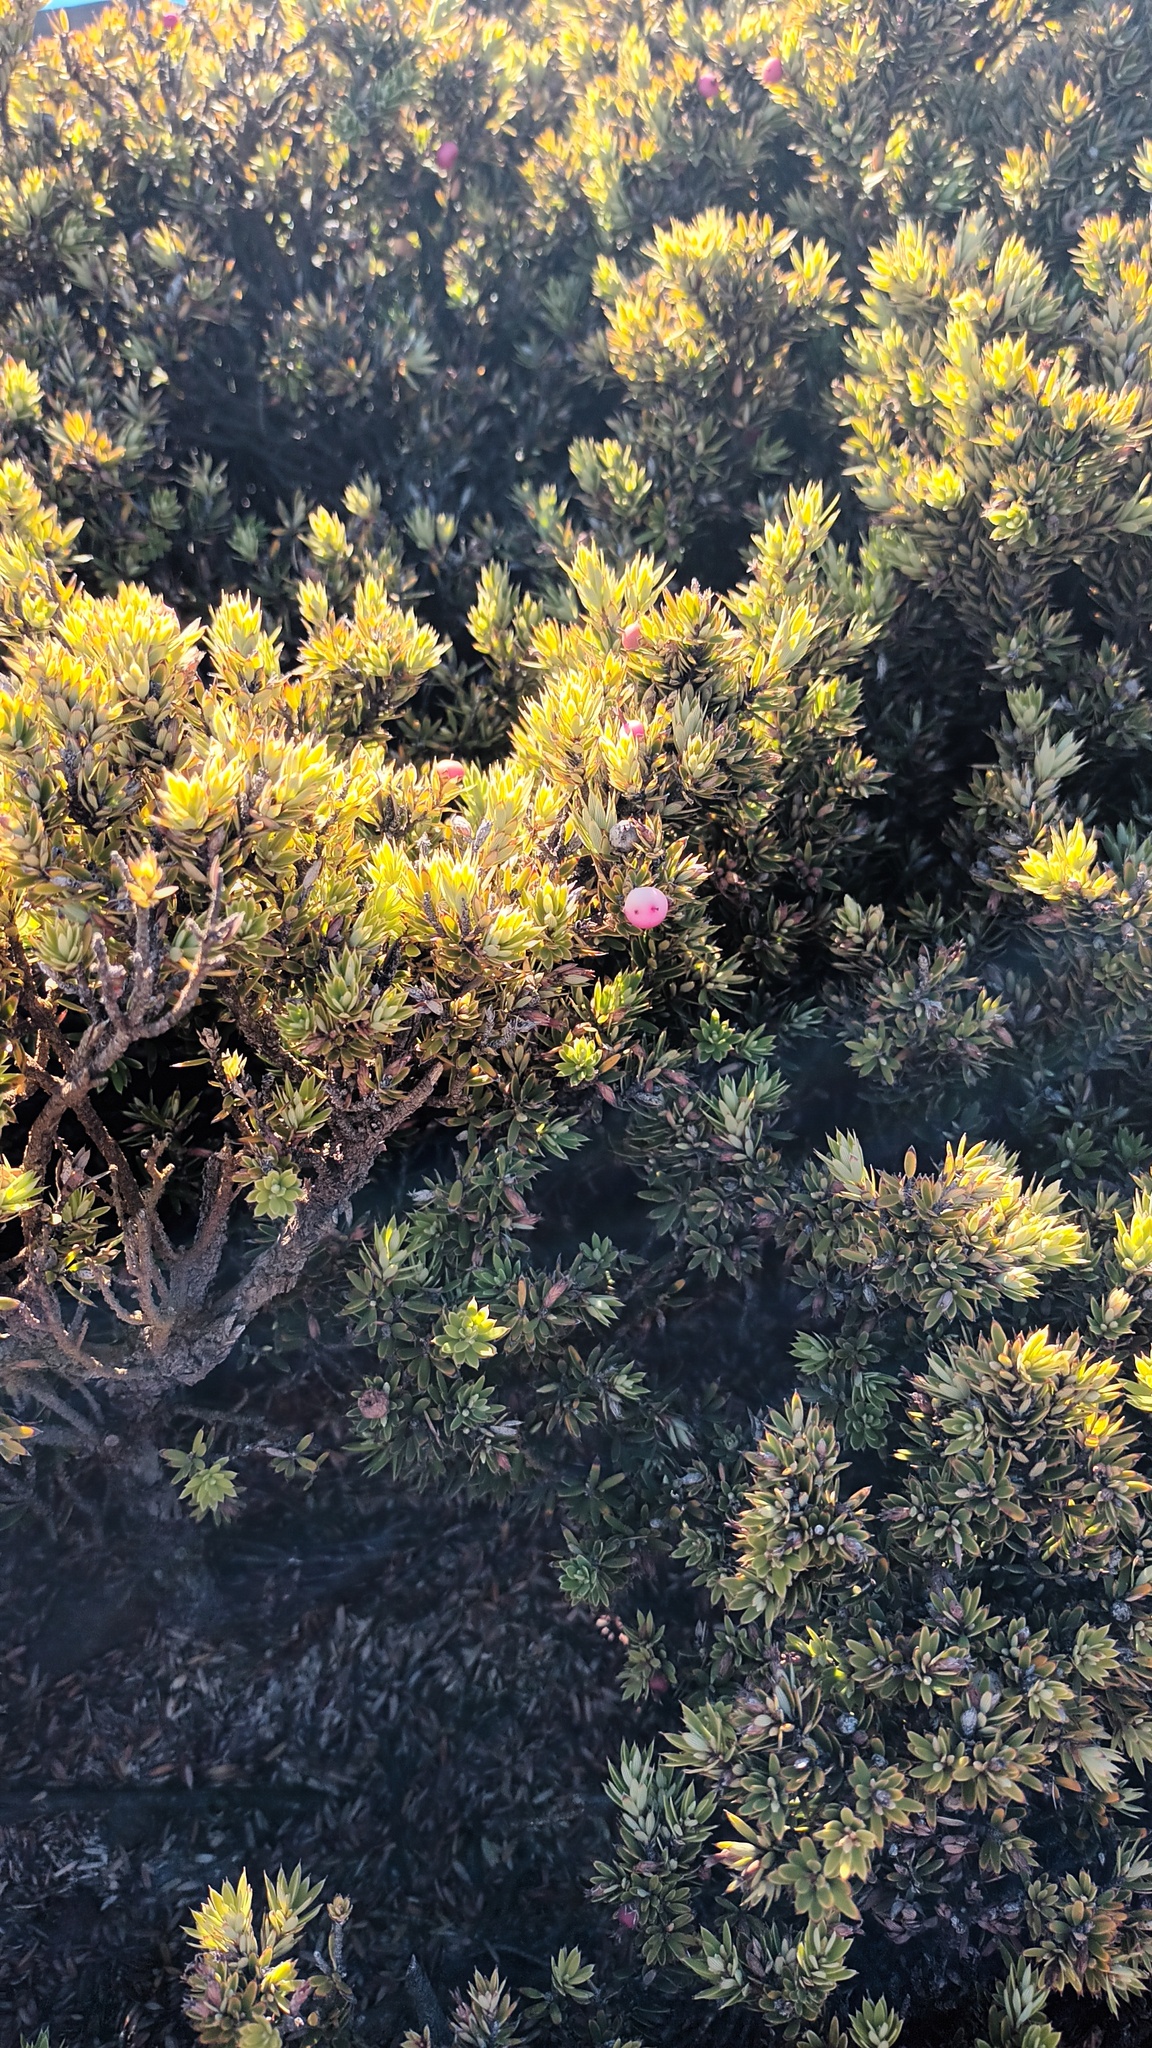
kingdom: Plantae
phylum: Tracheophyta
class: Magnoliopsida
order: Ericales
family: Ericaceae
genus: Leptecophylla
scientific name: Leptecophylla tameiameiae
